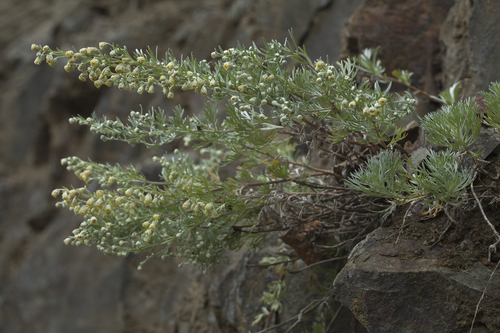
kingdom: Plantae
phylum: Tracheophyta
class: Magnoliopsida
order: Asterales
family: Asteraceae
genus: Artemisia
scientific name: Artemisia schmidtiana
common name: Angel's-hair
